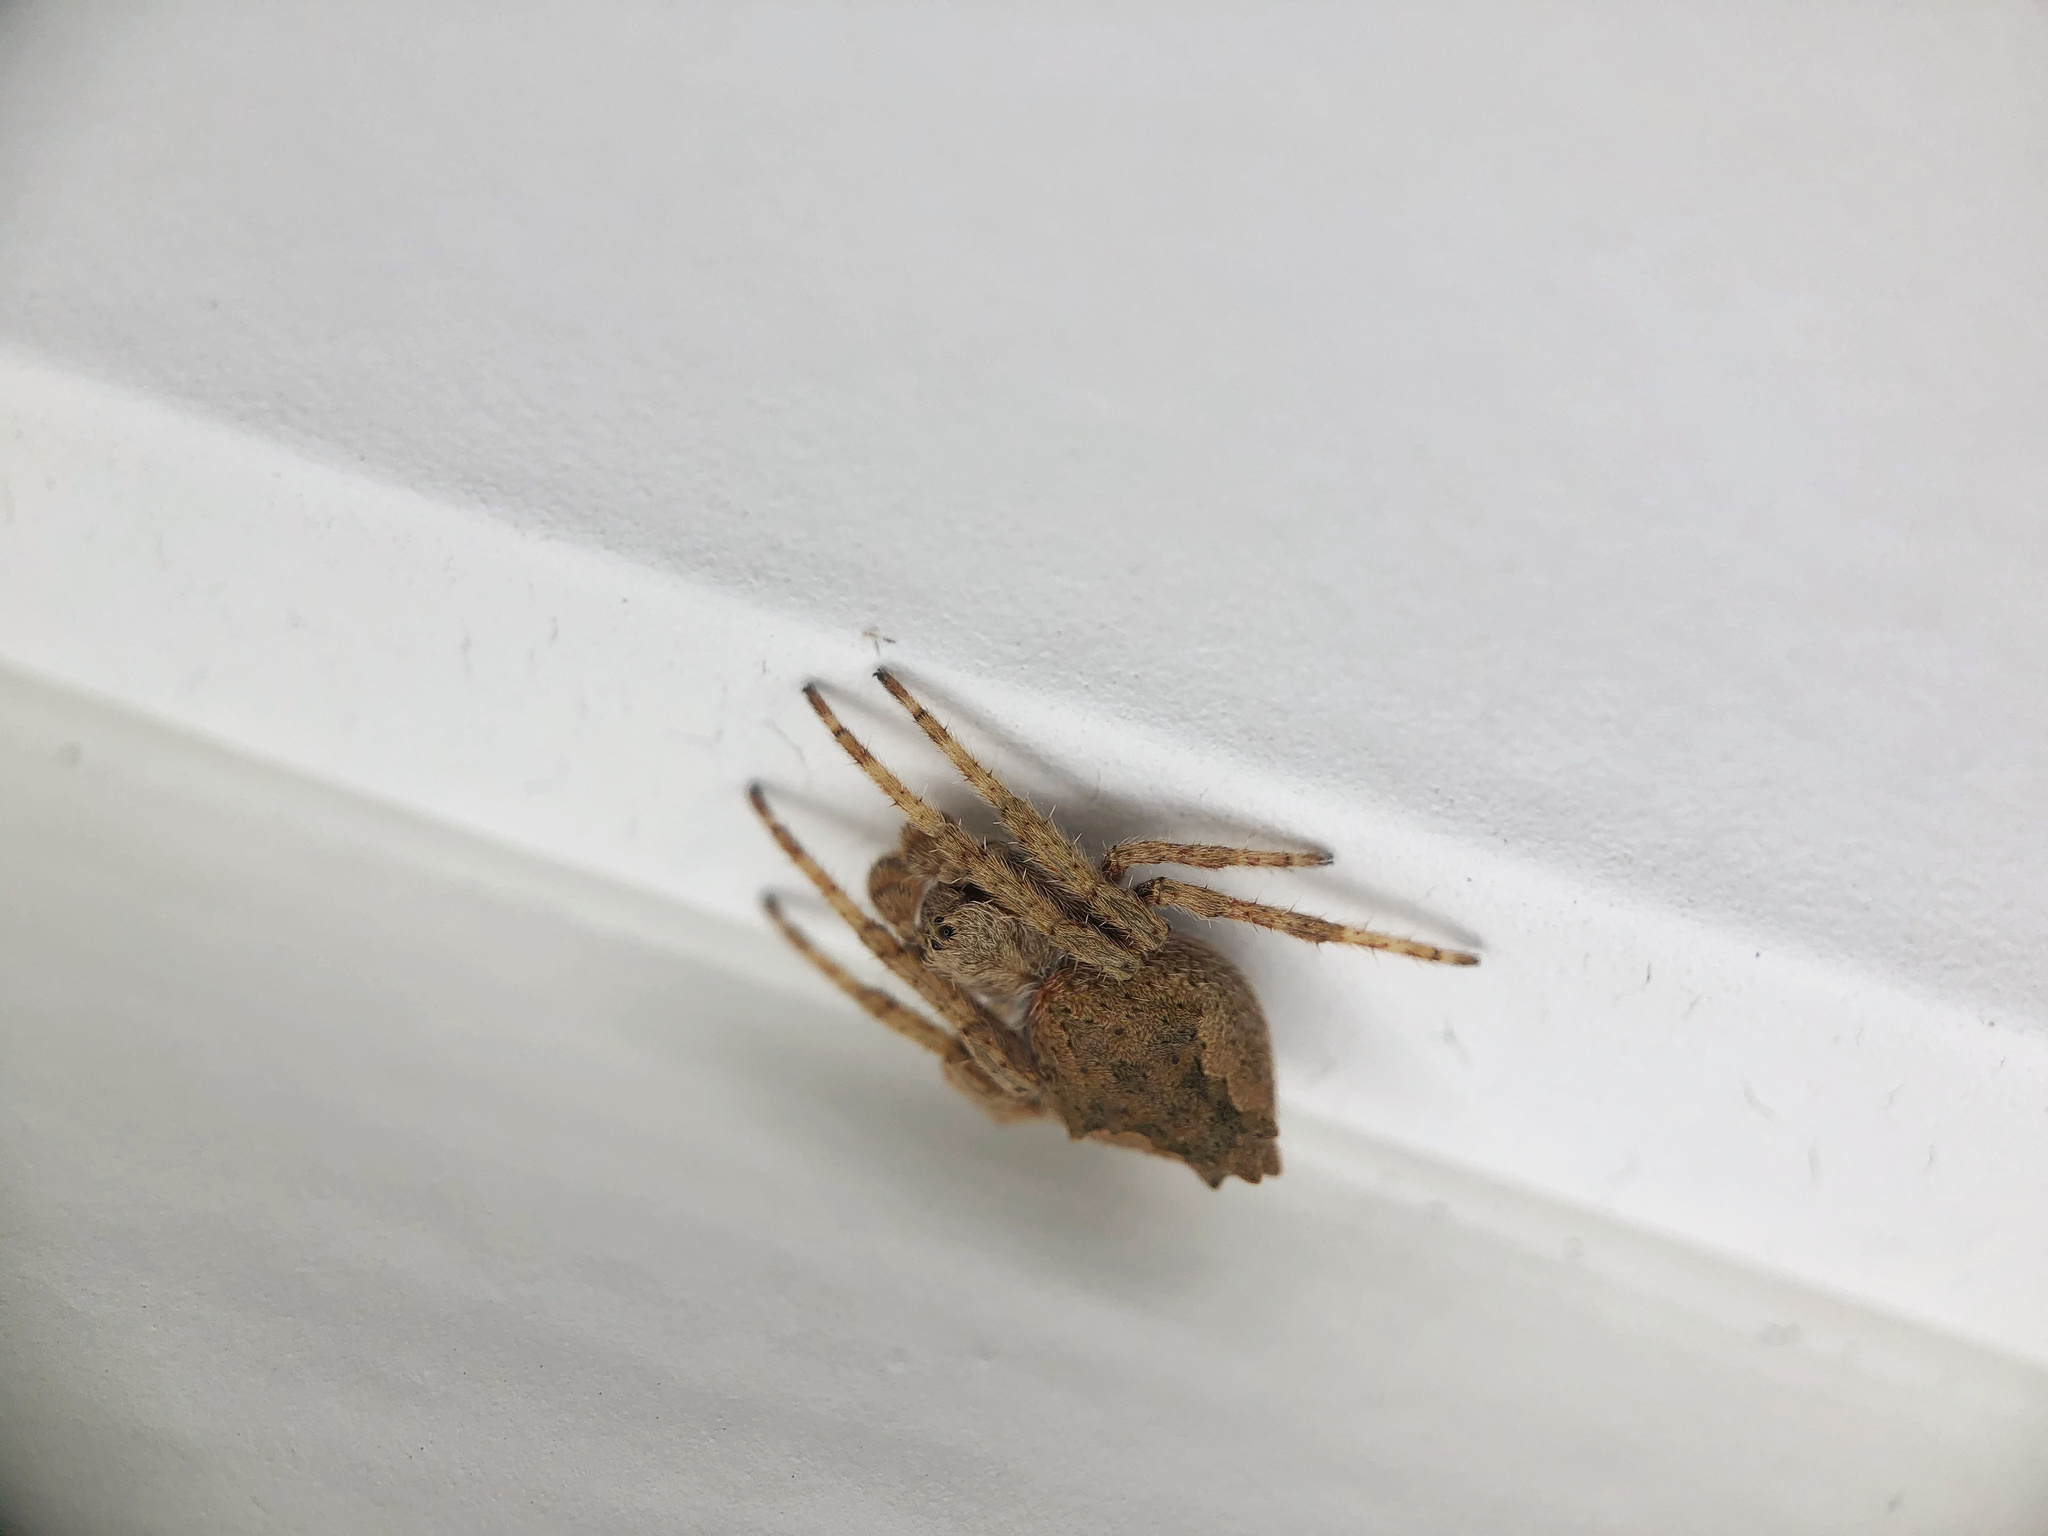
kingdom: Animalia
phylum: Arthropoda
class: Arachnida
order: Araneae
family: Araneidae
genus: Eriophora
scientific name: Eriophora pustulosa
